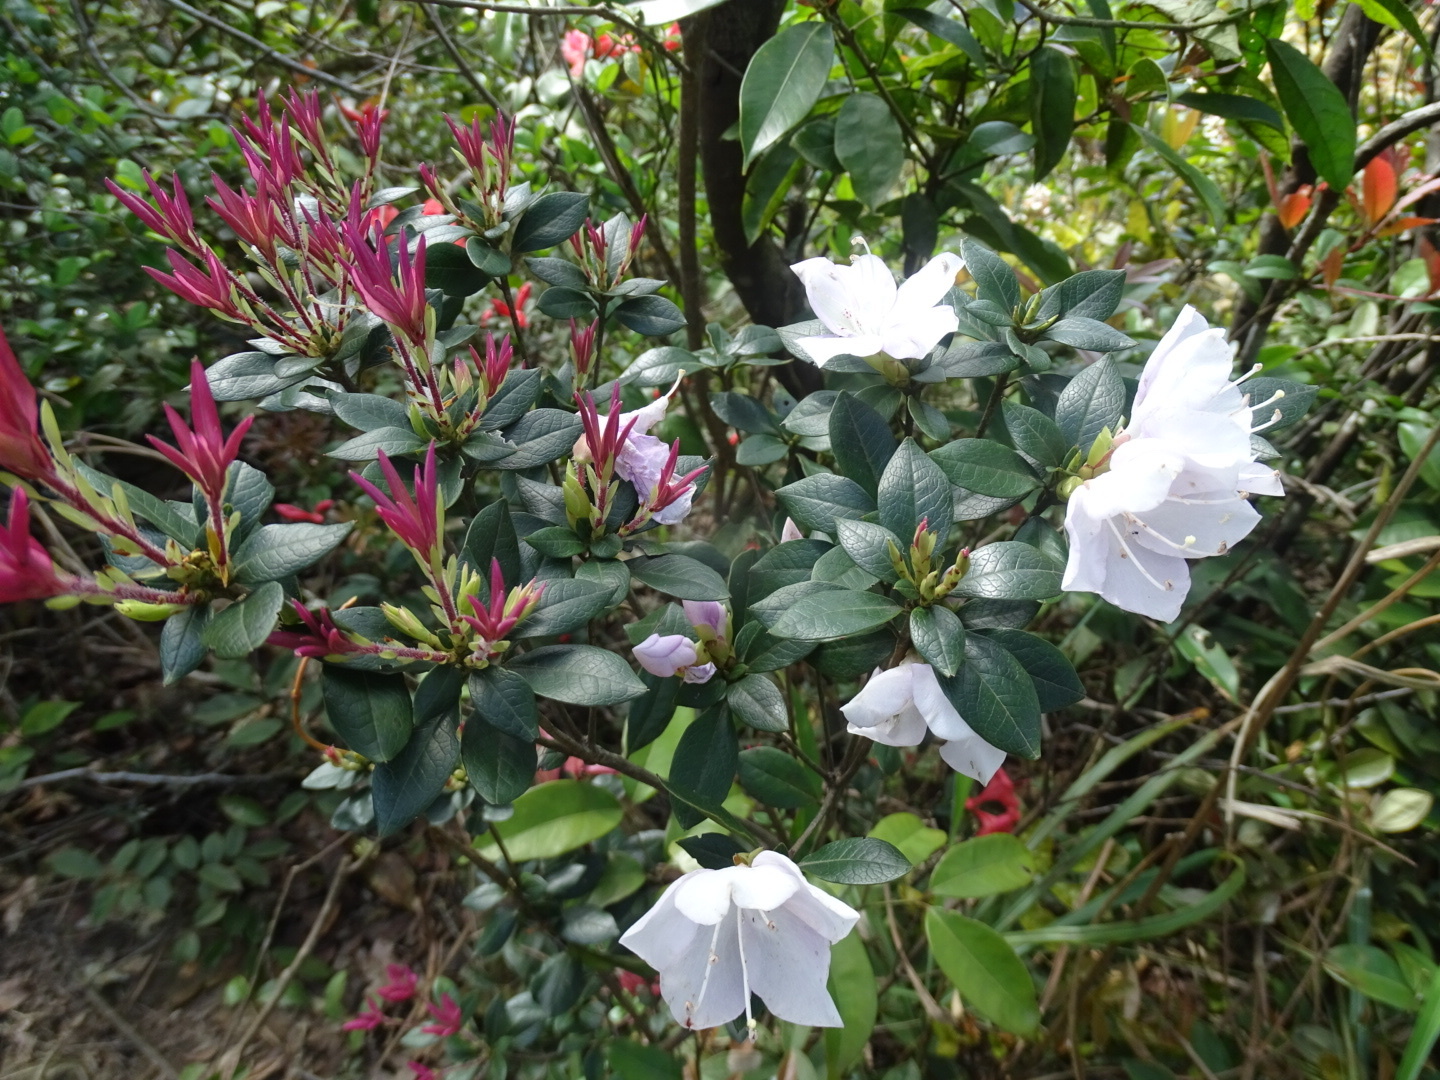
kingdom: Plantae
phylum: Tracheophyta
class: Magnoliopsida
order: Ericales
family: Ericaceae
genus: Rhododendron
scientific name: Rhododendron hongkongense
